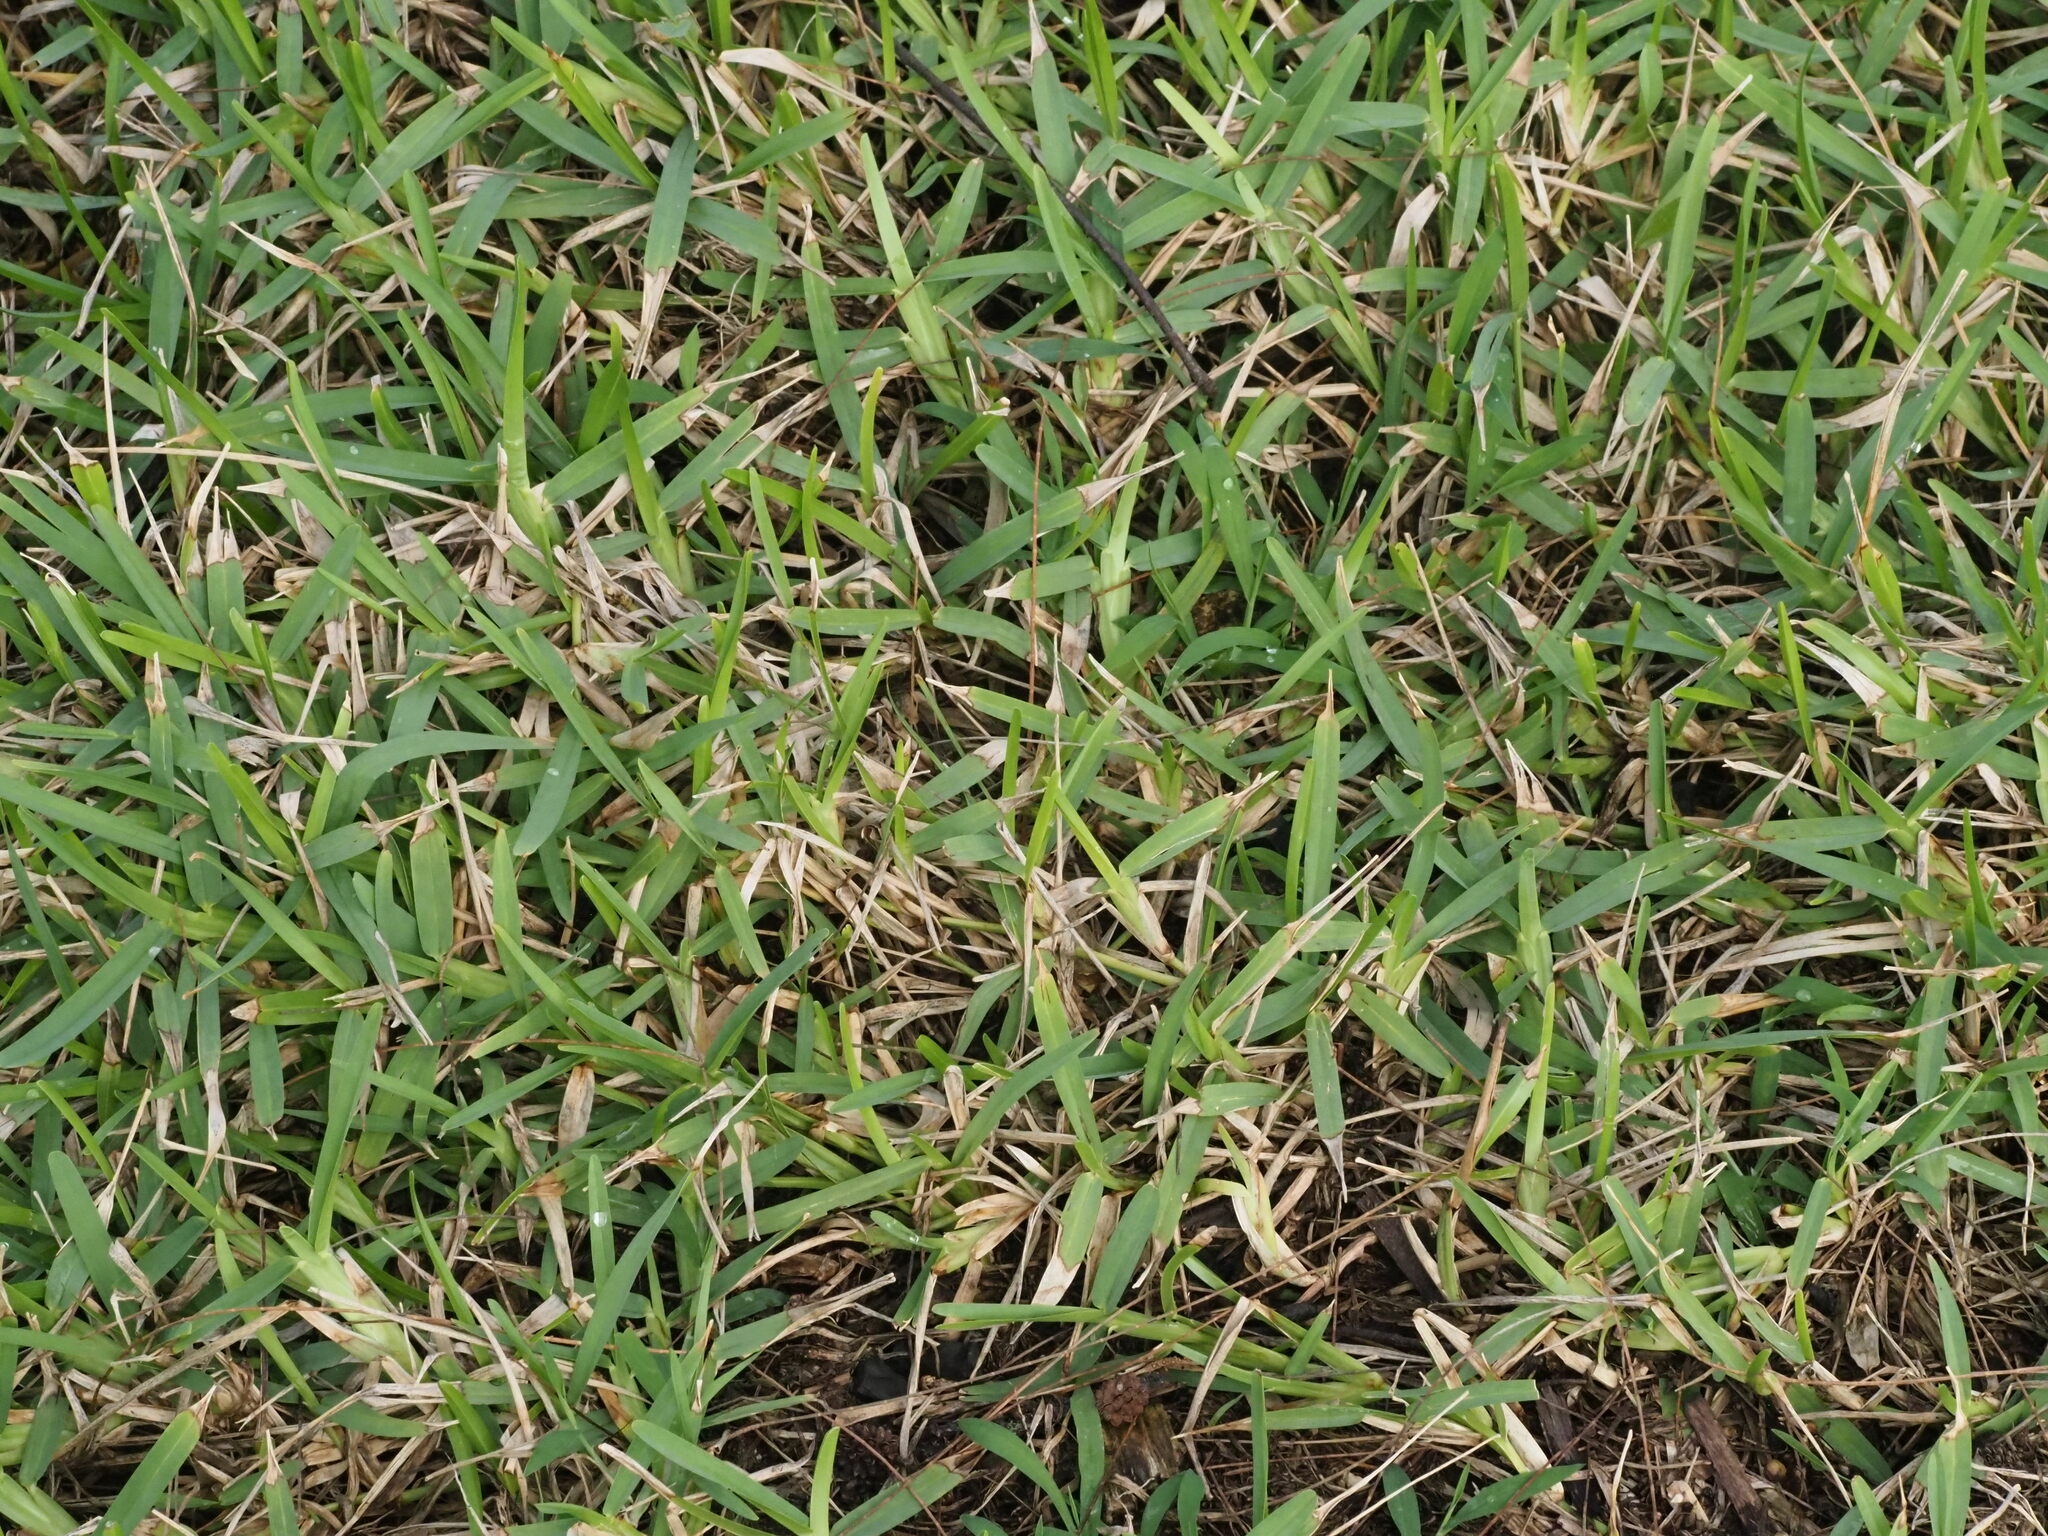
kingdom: Plantae
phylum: Tracheophyta
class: Liliopsida
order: Poales
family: Poaceae
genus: Stenotaphrum
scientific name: Stenotaphrum secundatum
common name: St. augustine grass
